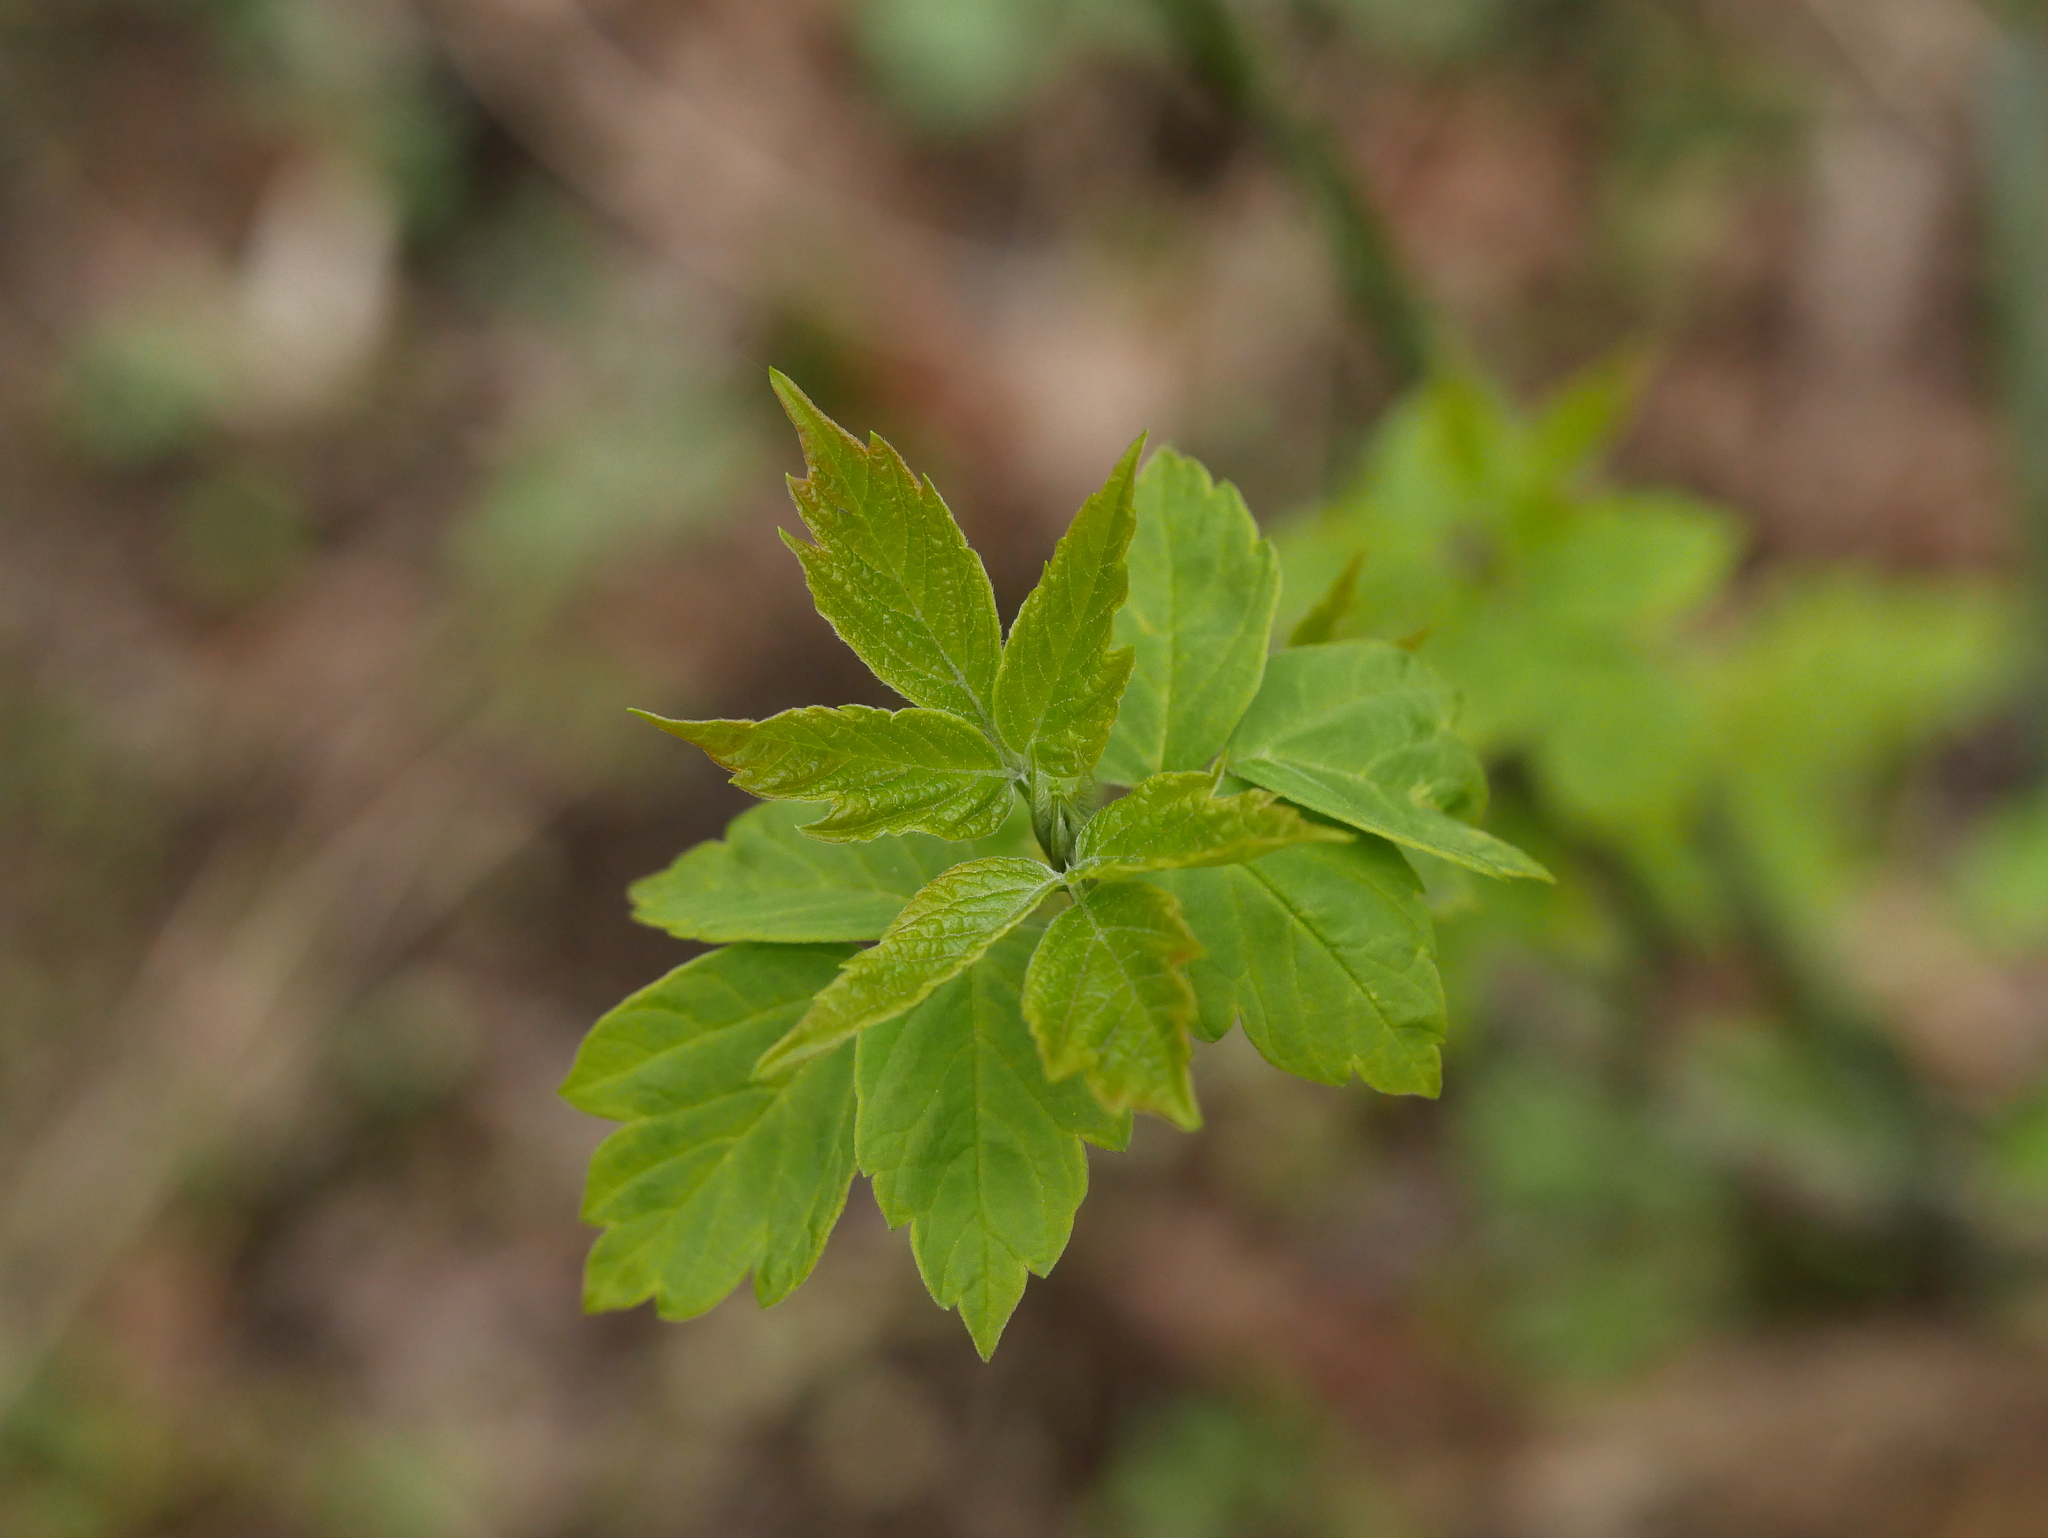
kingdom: Plantae
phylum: Tracheophyta
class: Magnoliopsida
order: Sapindales
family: Sapindaceae
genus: Acer
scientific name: Acer negundo
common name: Ashleaf maple
